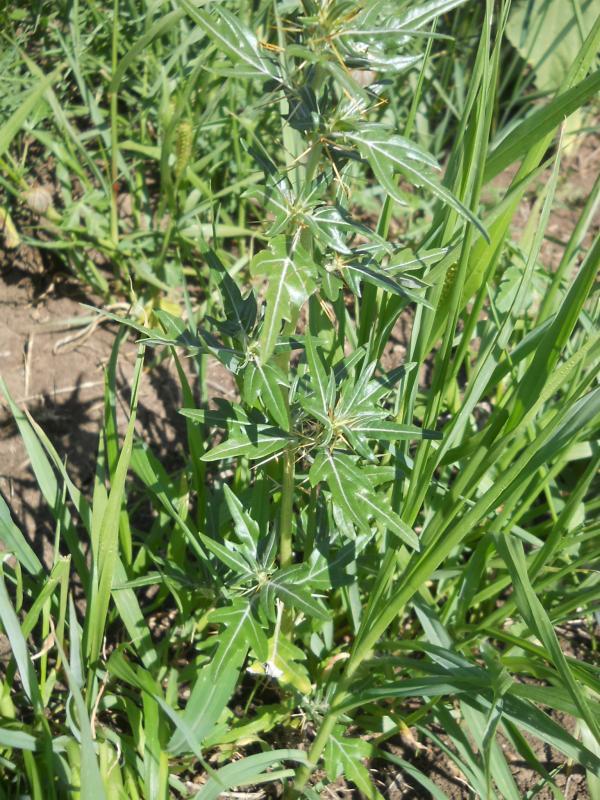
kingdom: Plantae
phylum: Tracheophyta
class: Magnoliopsida
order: Asterales
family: Asteraceae
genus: Xanthium
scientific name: Xanthium spinosum
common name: Spiny cocklebur
